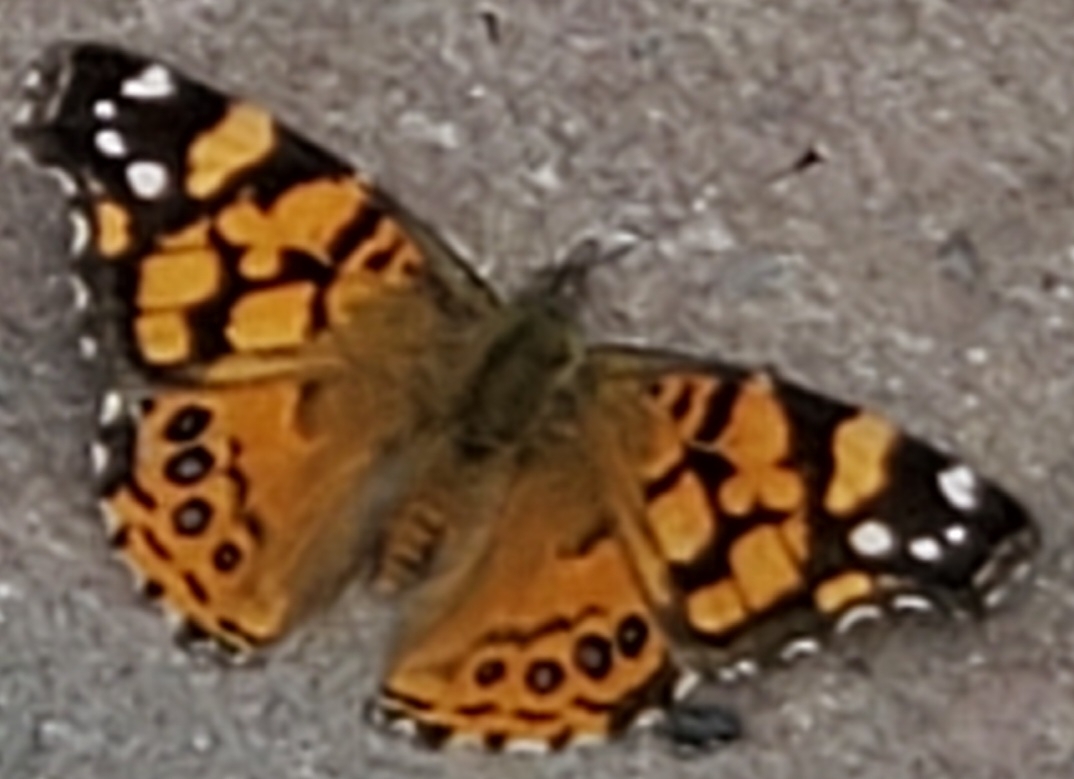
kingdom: Animalia
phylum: Arthropoda
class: Insecta
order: Lepidoptera
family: Nymphalidae
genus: Vanessa
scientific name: Vanessa annabella
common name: West coast lady
